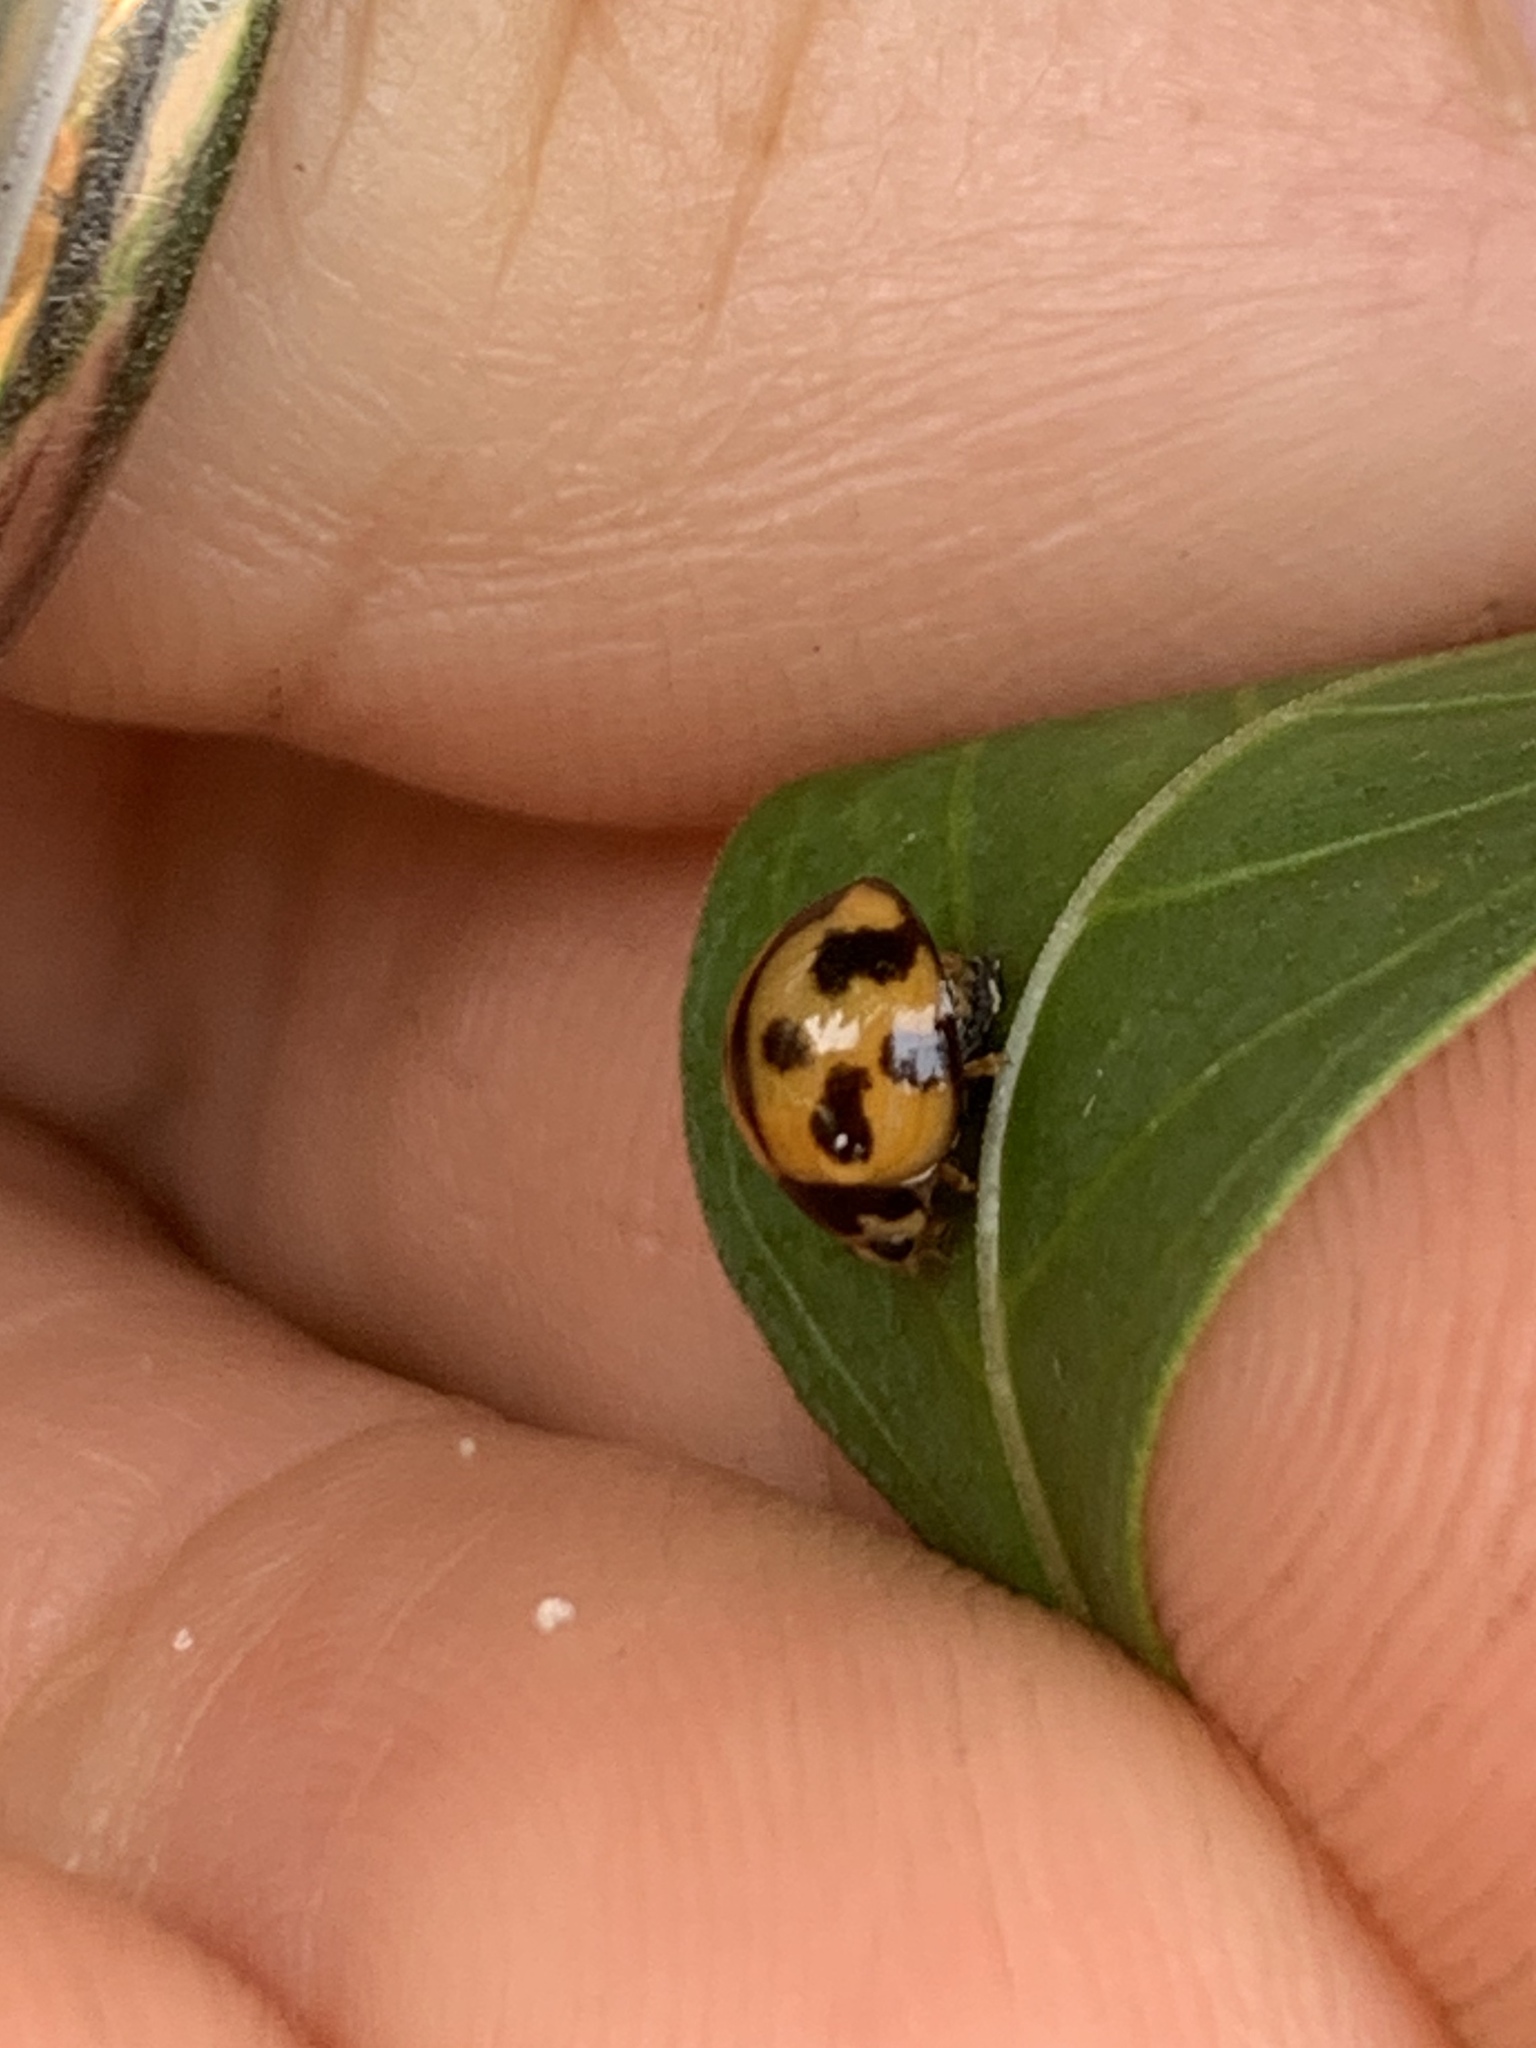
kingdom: Animalia
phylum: Arthropoda
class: Insecta
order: Coleoptera
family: Coccinellidae
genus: Coelophora
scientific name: Coelophora inaequalis
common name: Common australian lady beetle
